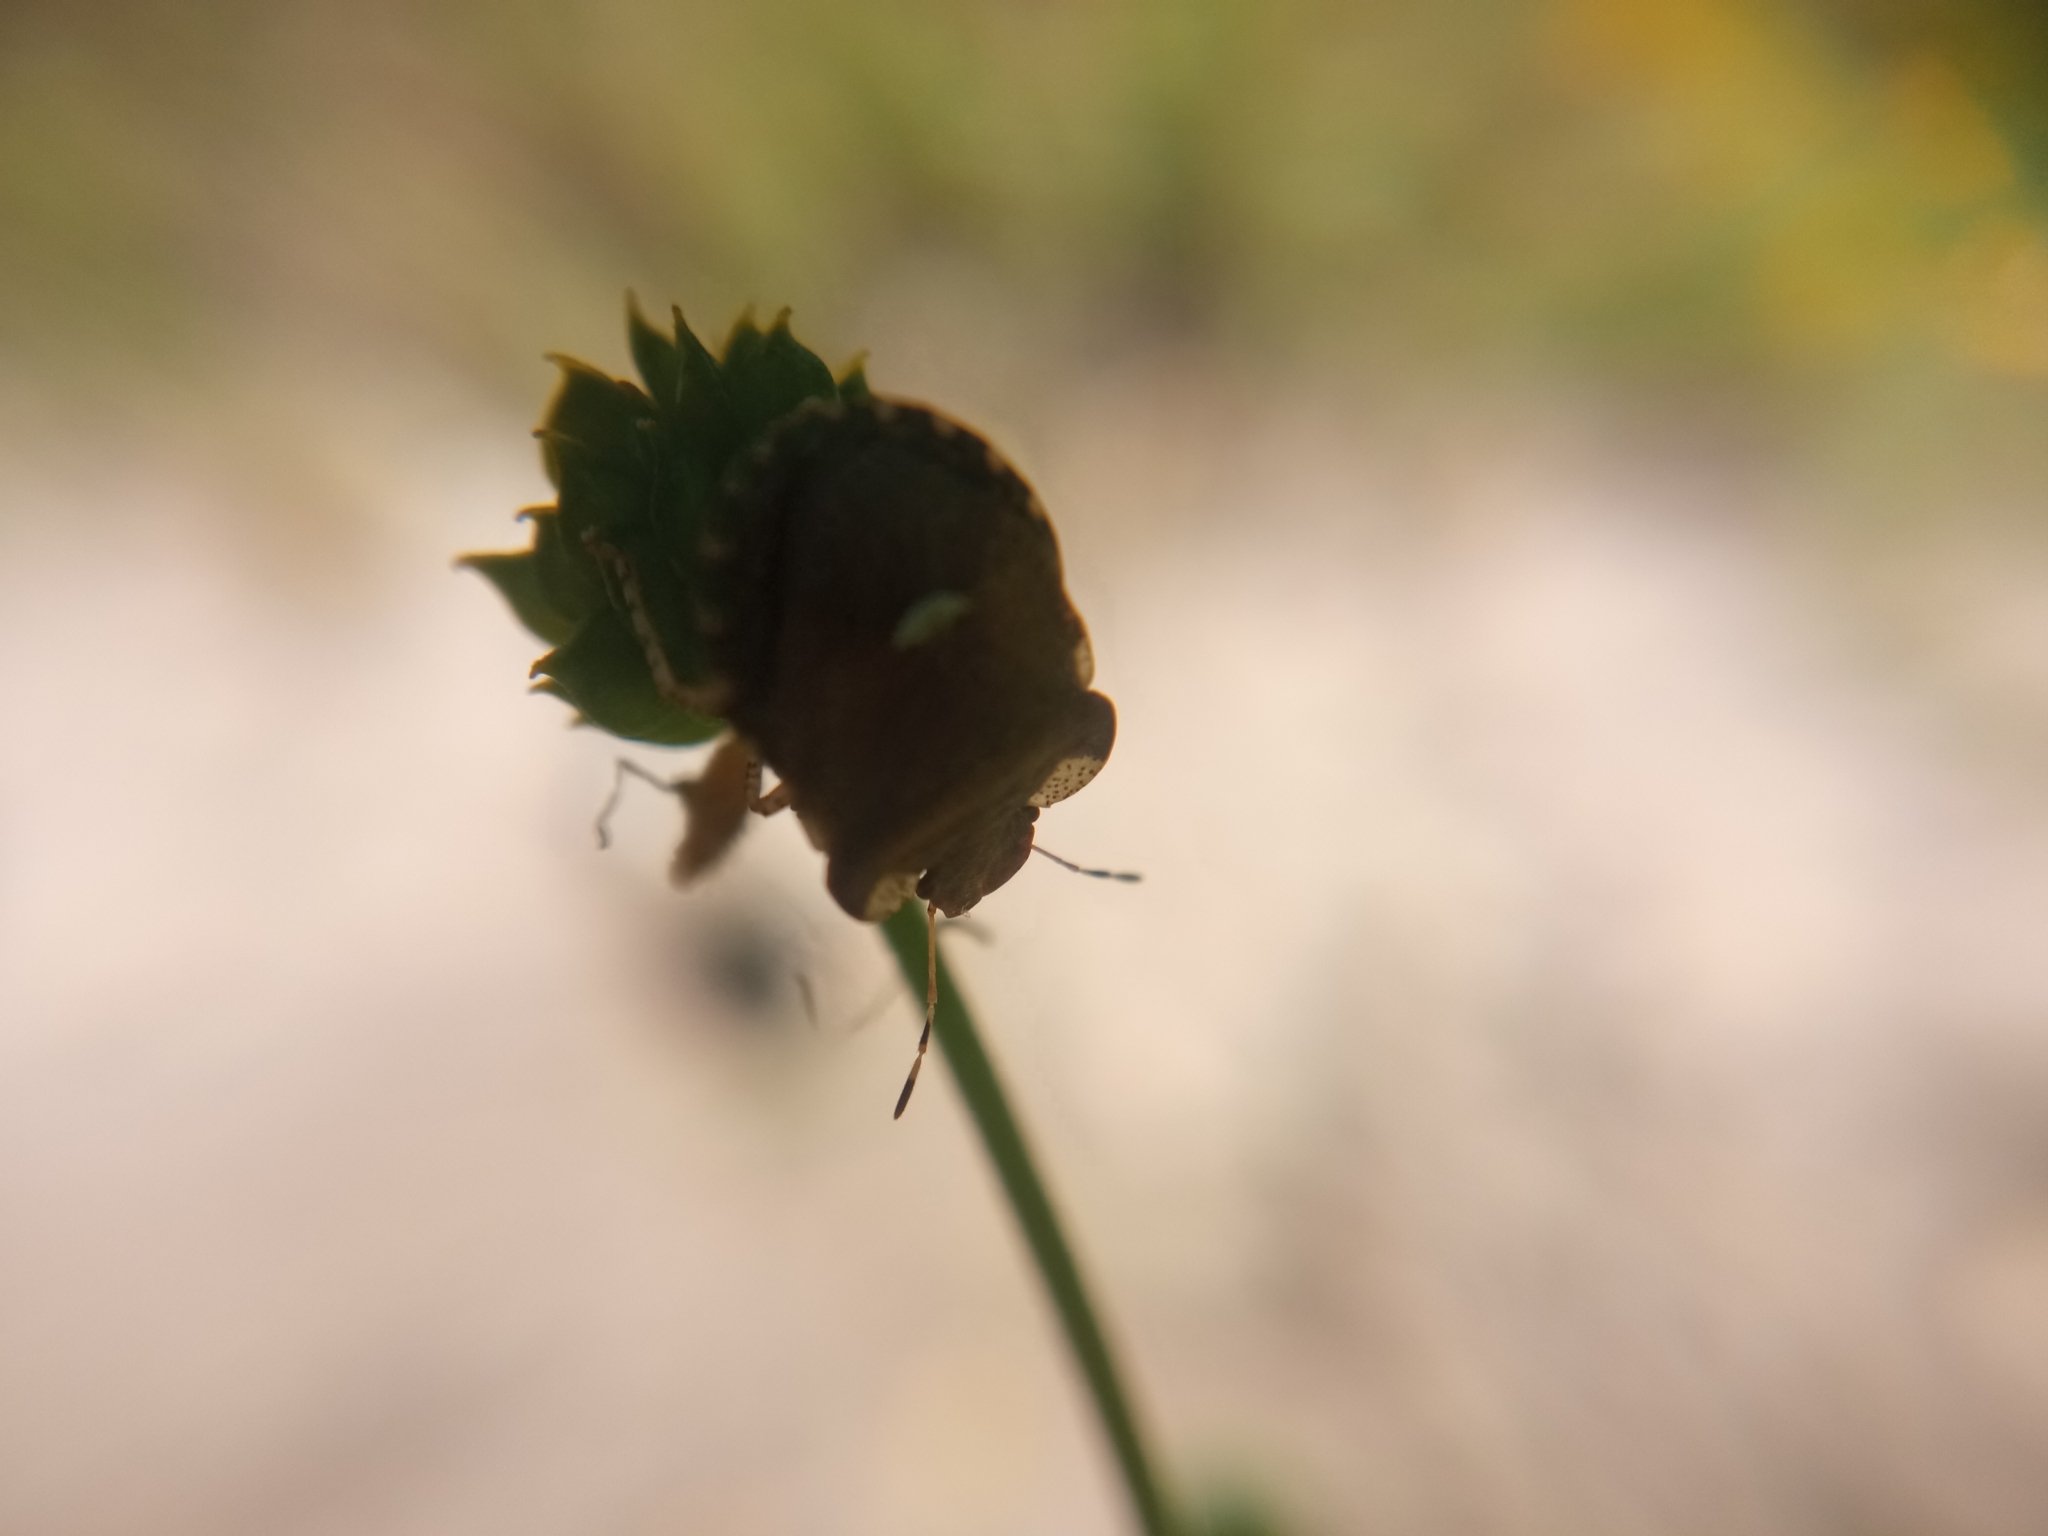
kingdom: Animalia
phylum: Arthropoda
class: Insecta
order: Hemiptera
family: Pentatomidae
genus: Dyroderes
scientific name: Dyroderes umbraculatus
